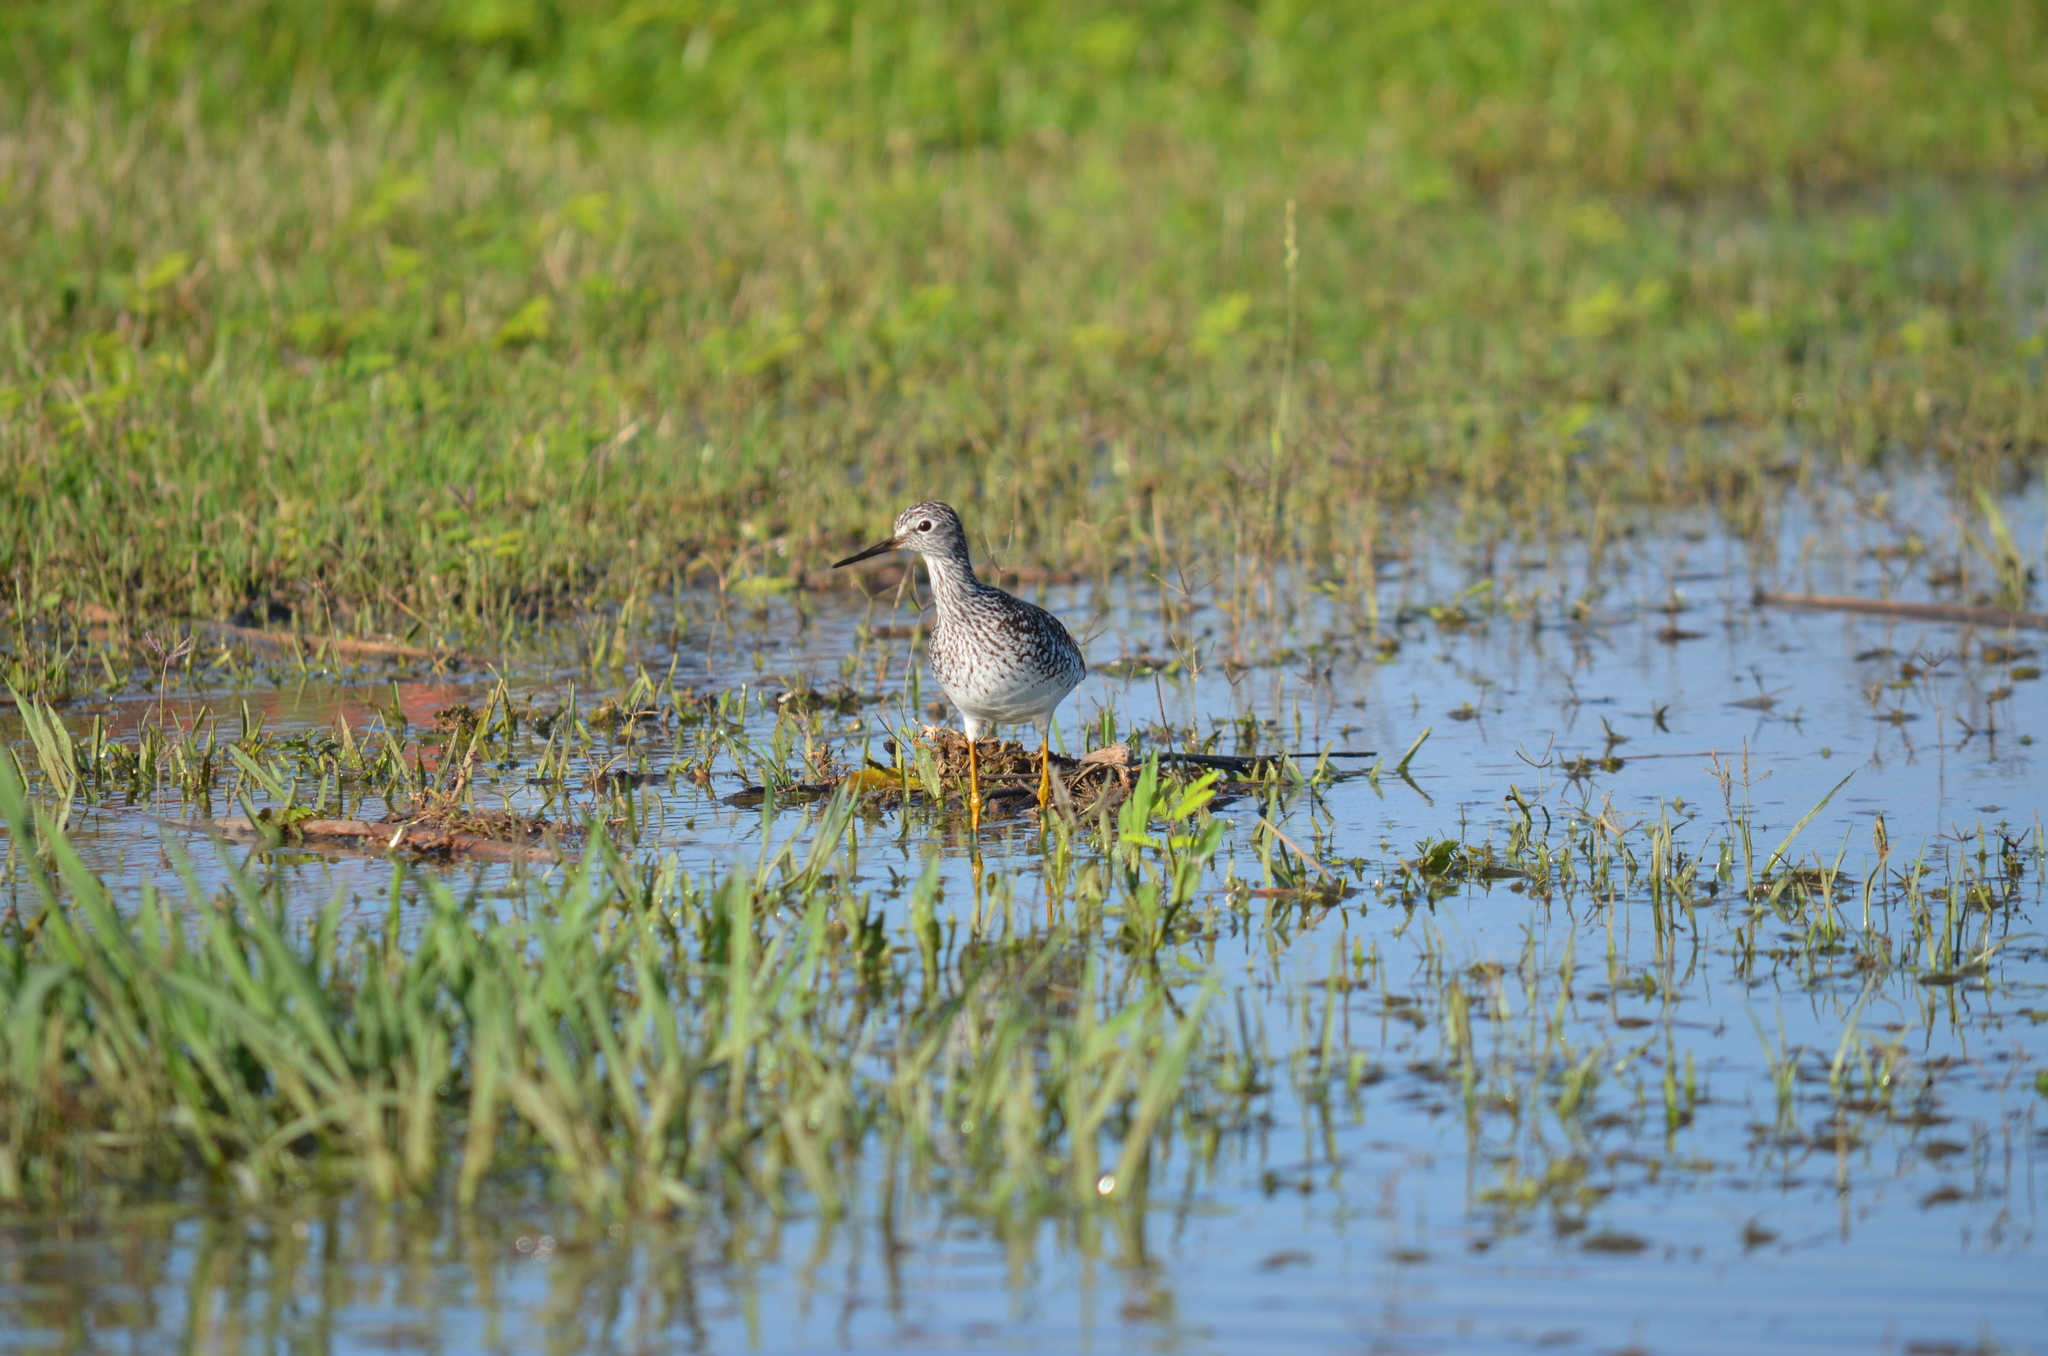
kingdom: Animalia
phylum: Chordata
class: Aves
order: Charadriiformes
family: Scolopacidae
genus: Tringa
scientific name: Tringa flavipes
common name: Lesser yellowlegs
